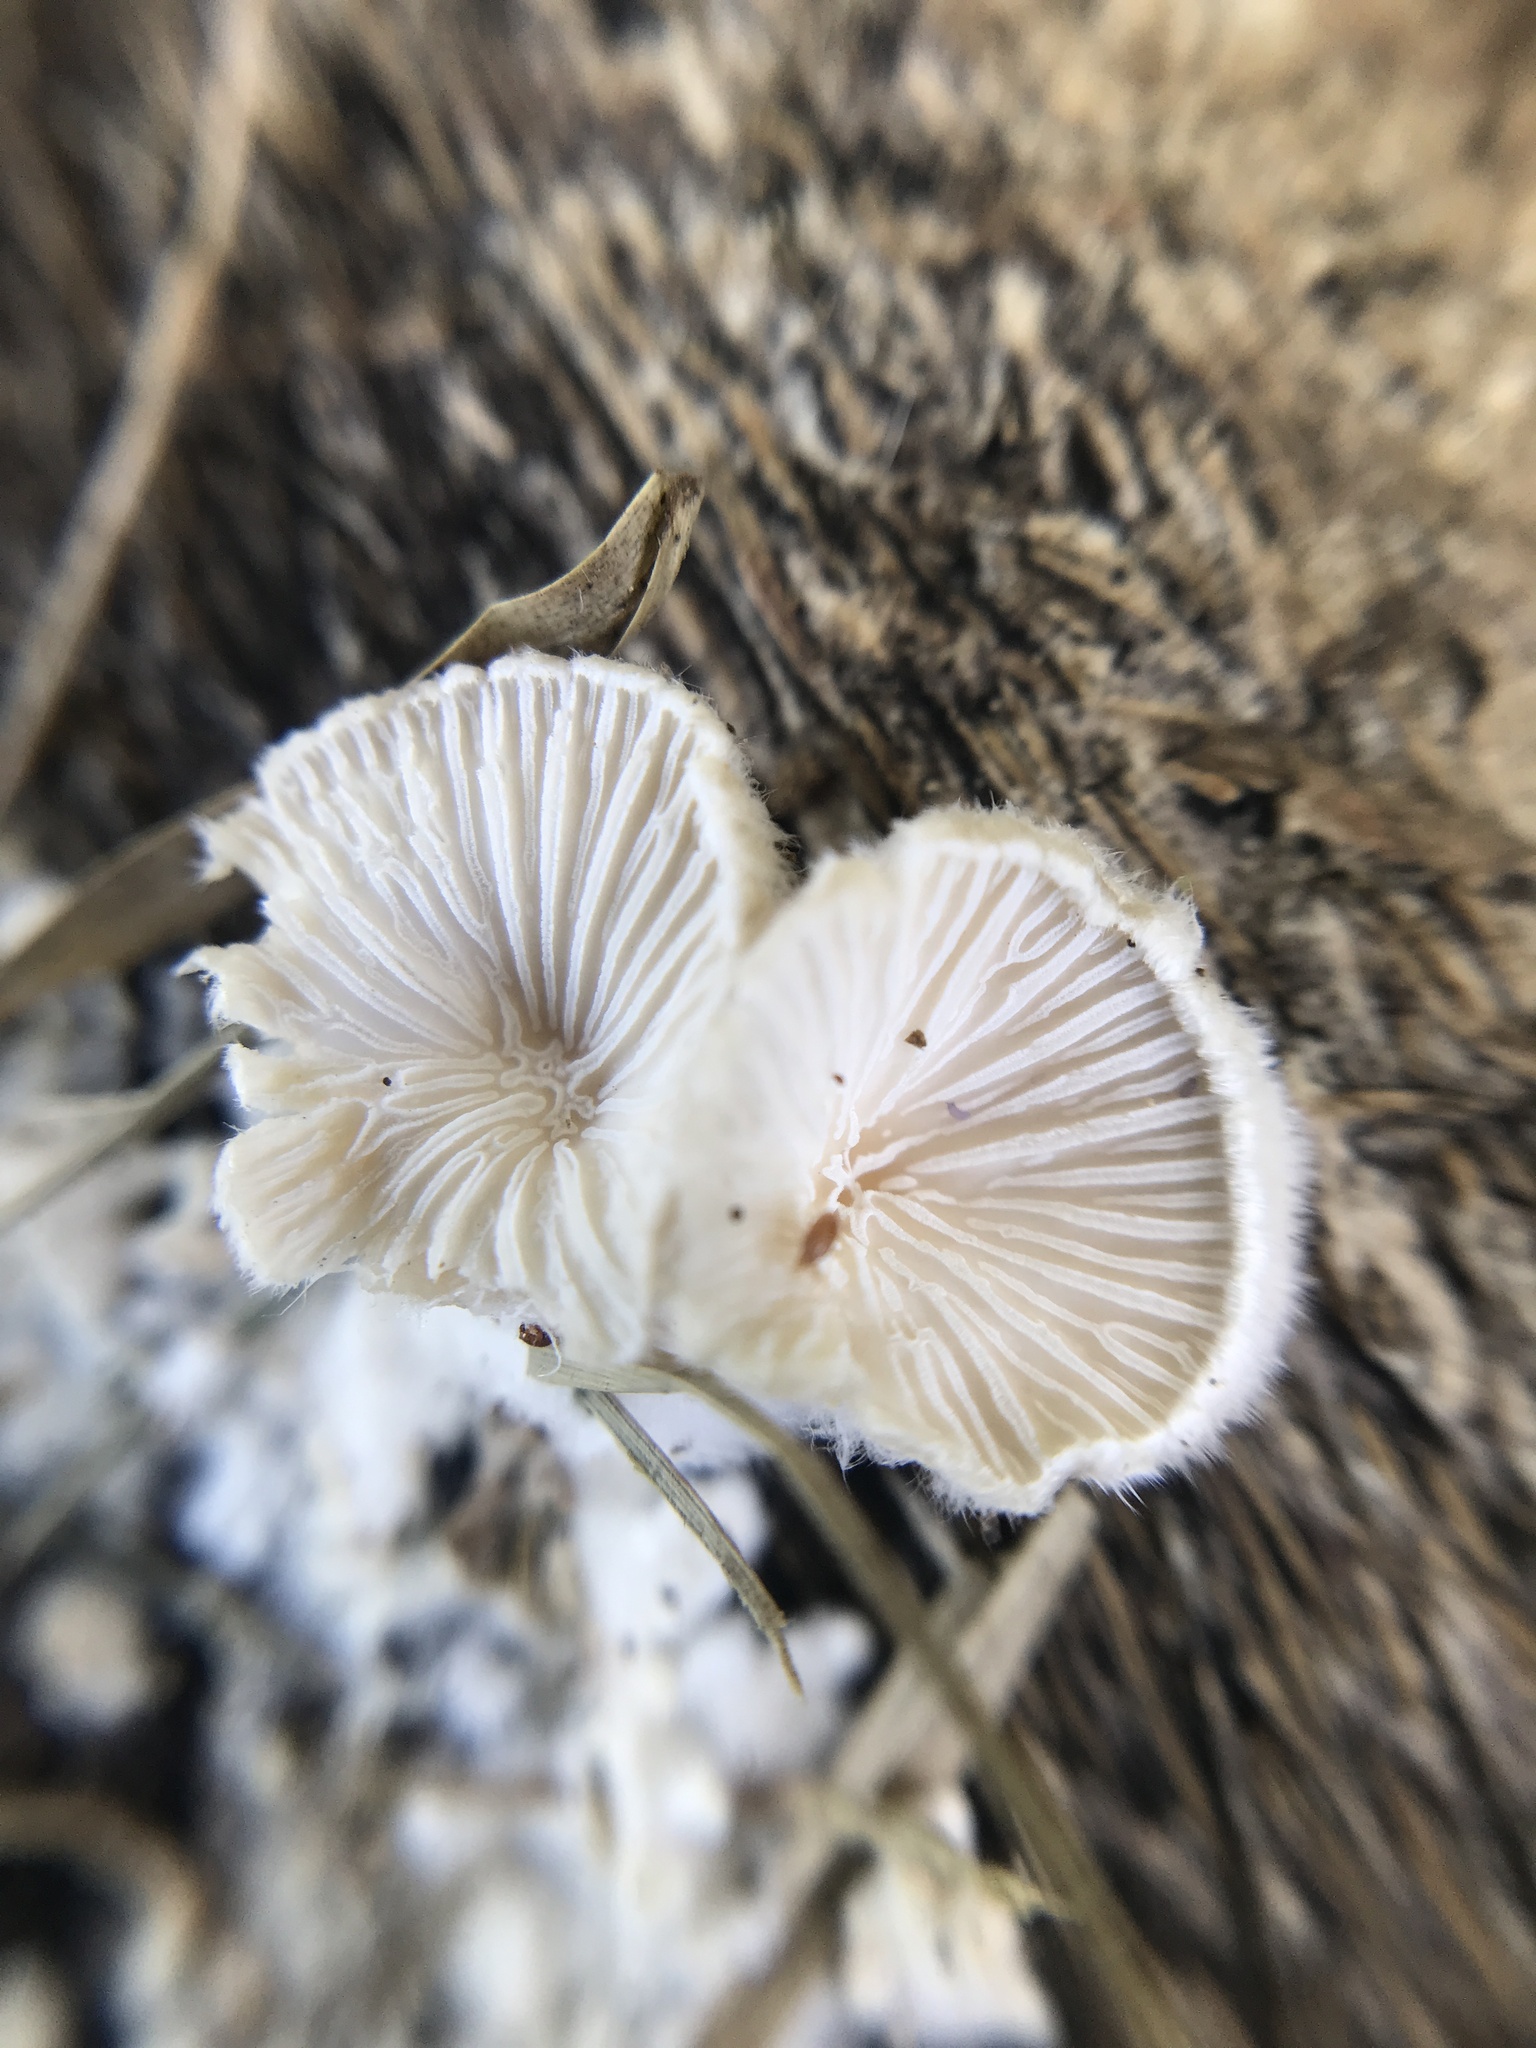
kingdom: Fungi
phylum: Basidiomycota
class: Agaricomycetes
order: Agaricales
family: Schizophyllaceae
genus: Schizophyllum
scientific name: Schizophyllum commune
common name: Common porecrust
